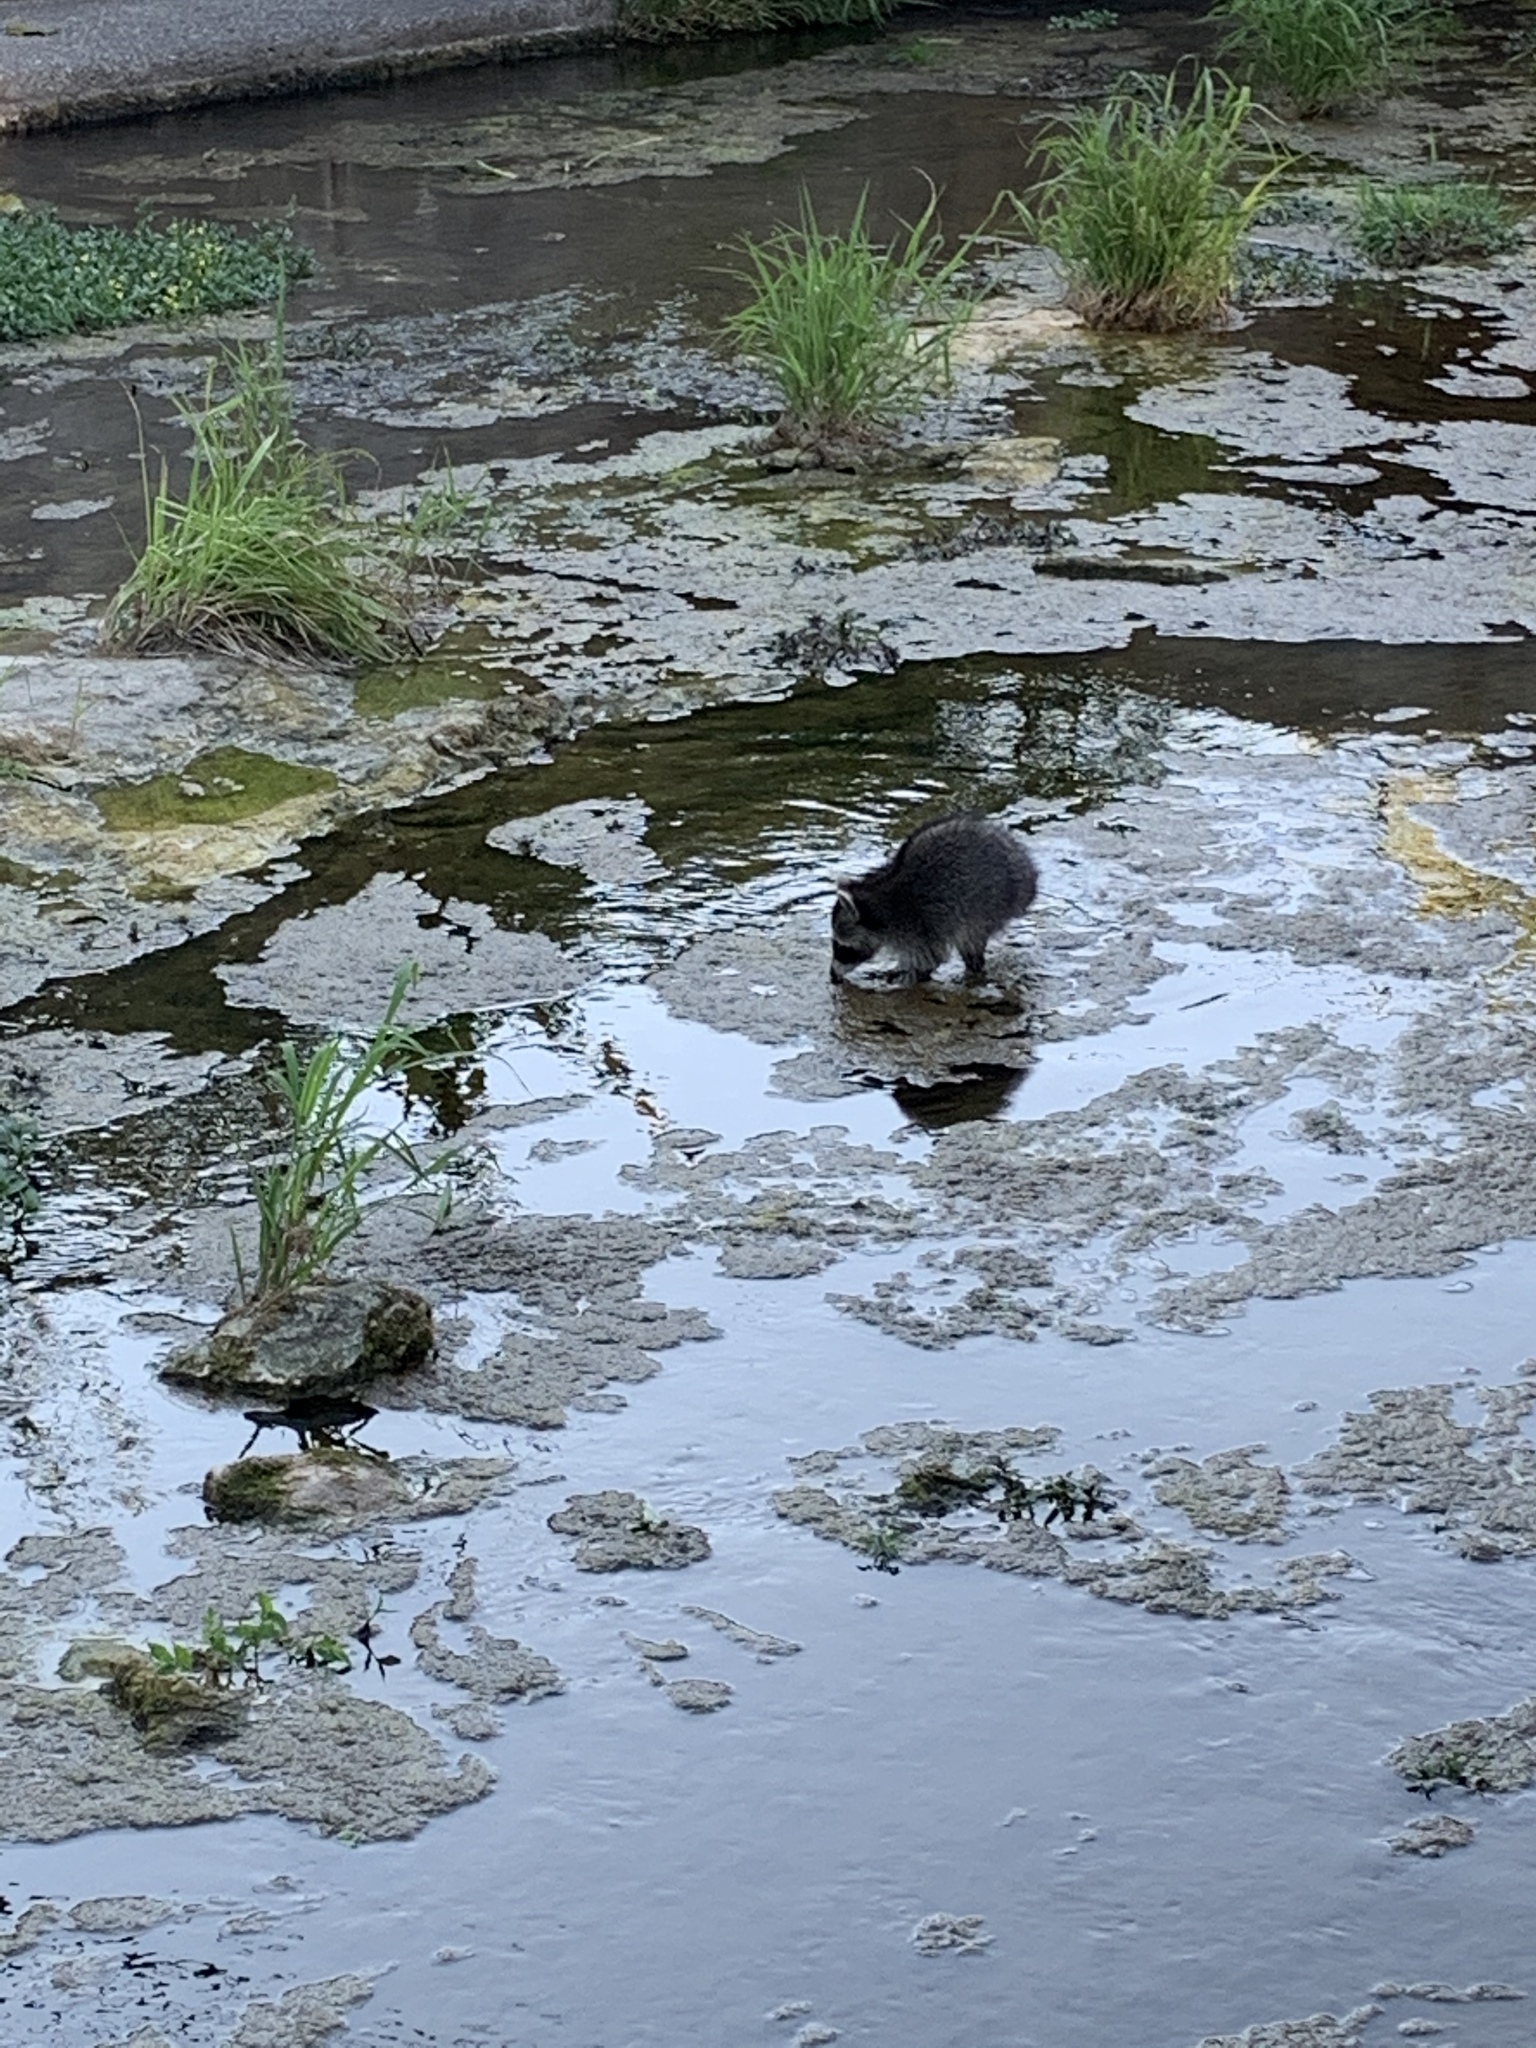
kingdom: Animalia
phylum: Chordata
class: Mammalia
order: Carnivora
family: Procyonidae
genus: Procyon
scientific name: Procyon lotor
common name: Raccoon
